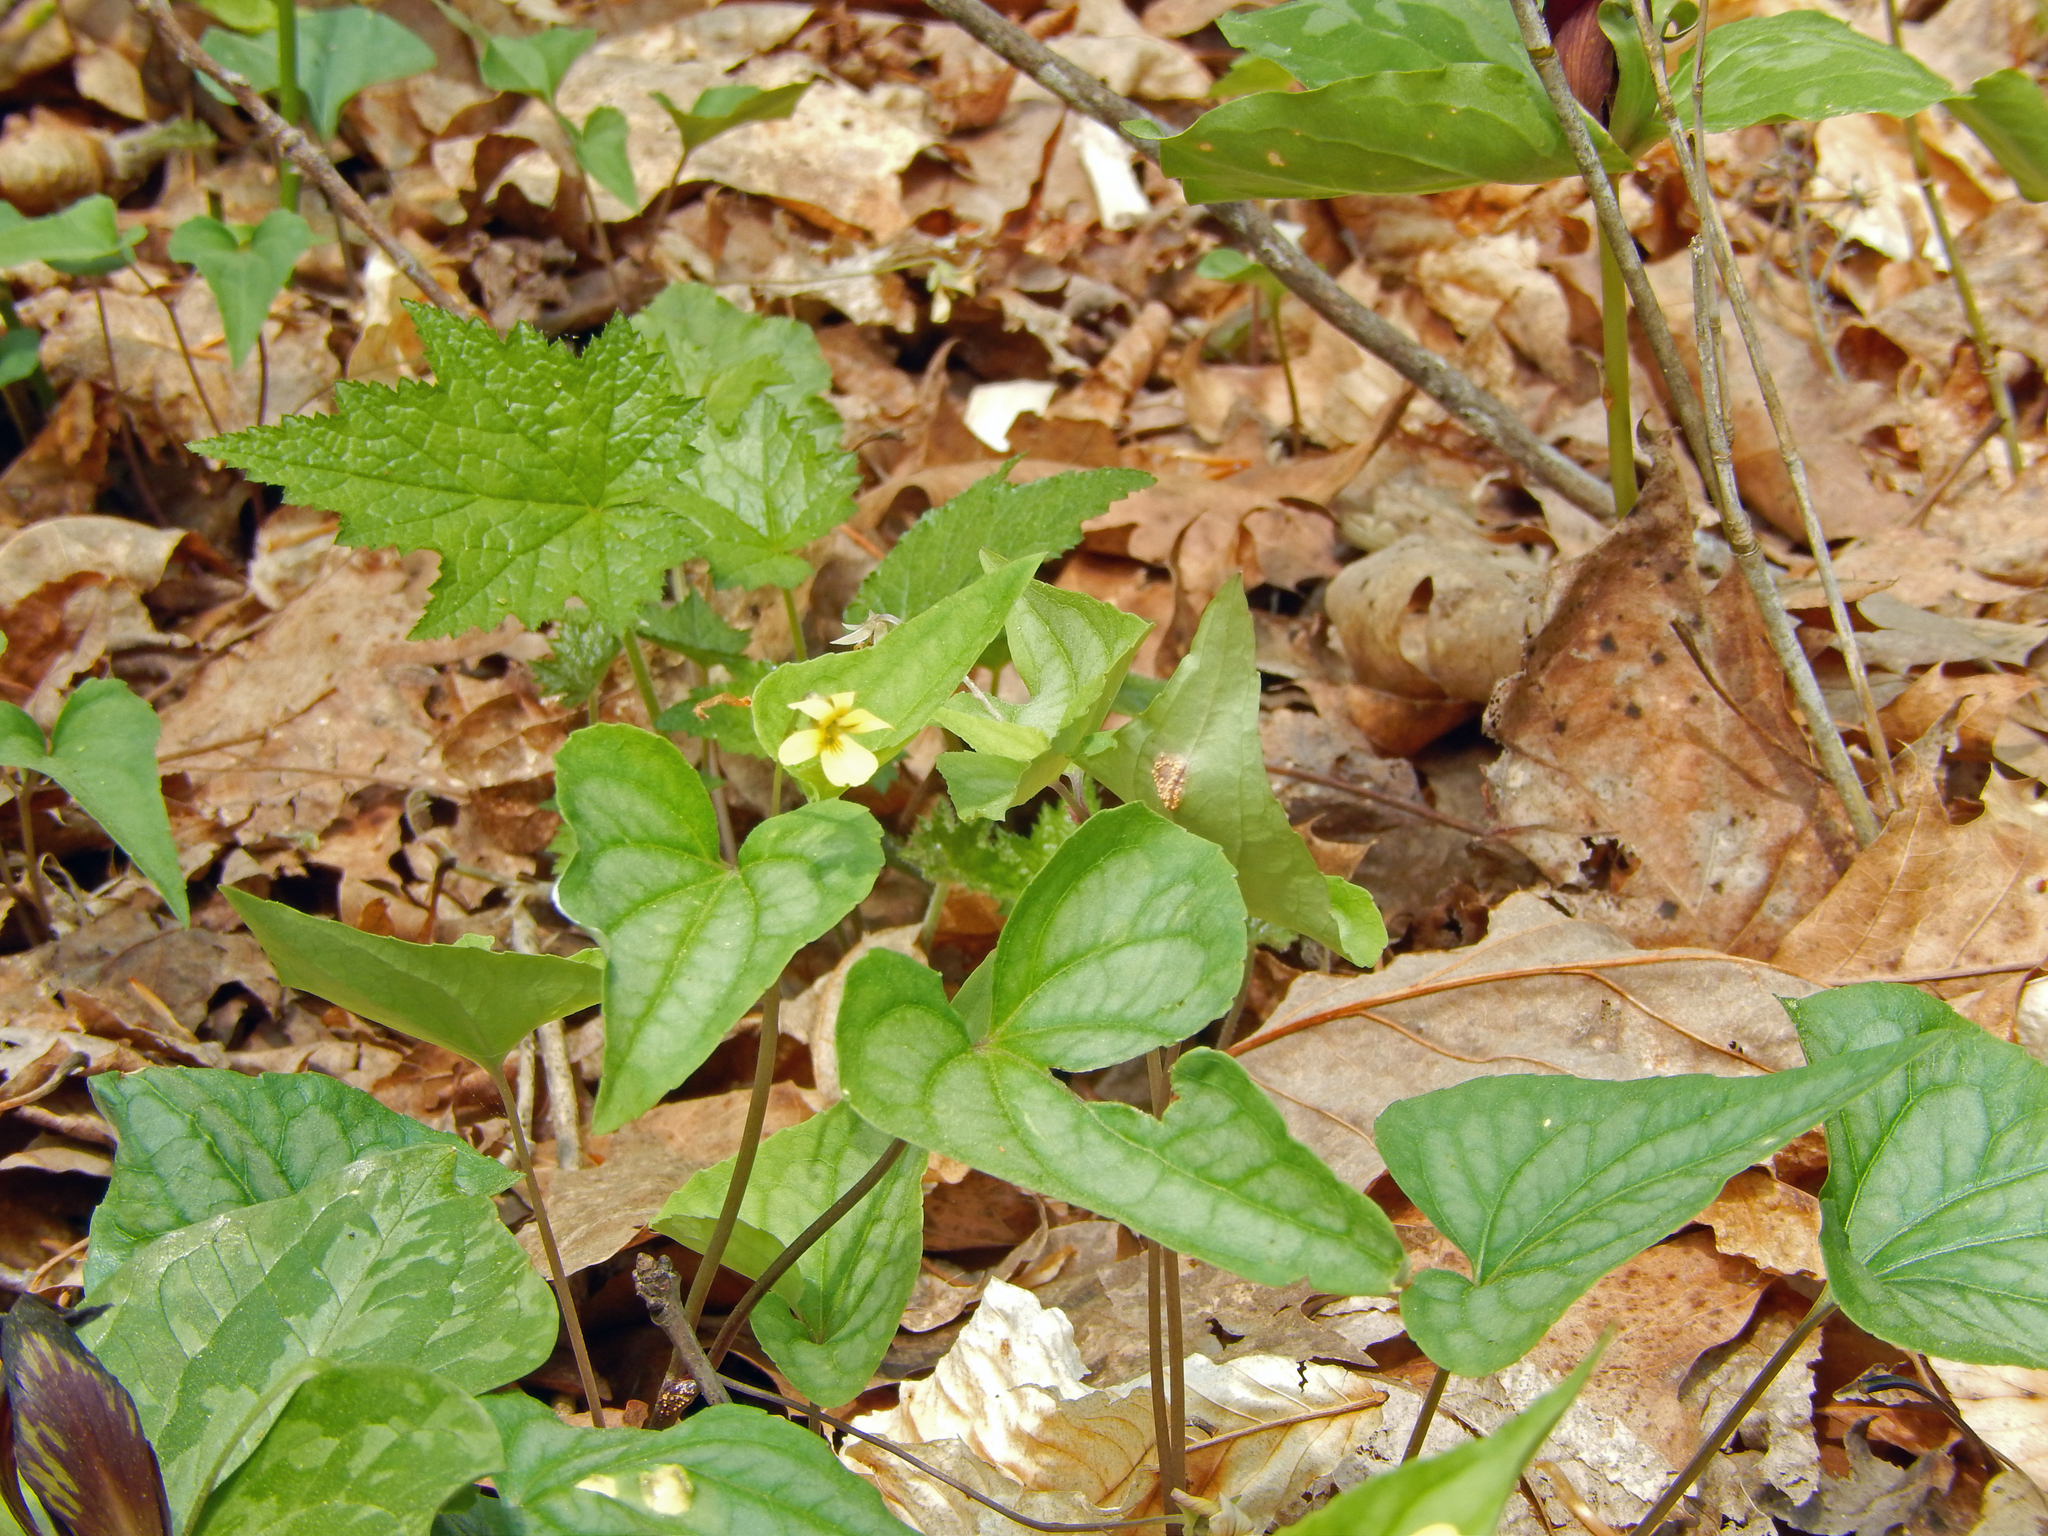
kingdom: Plantae
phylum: Tracheophyta
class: Magnoliopsida
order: Malpighiales
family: Violaceae
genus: Viola
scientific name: Viola hastata
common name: Spear-leaf violet
